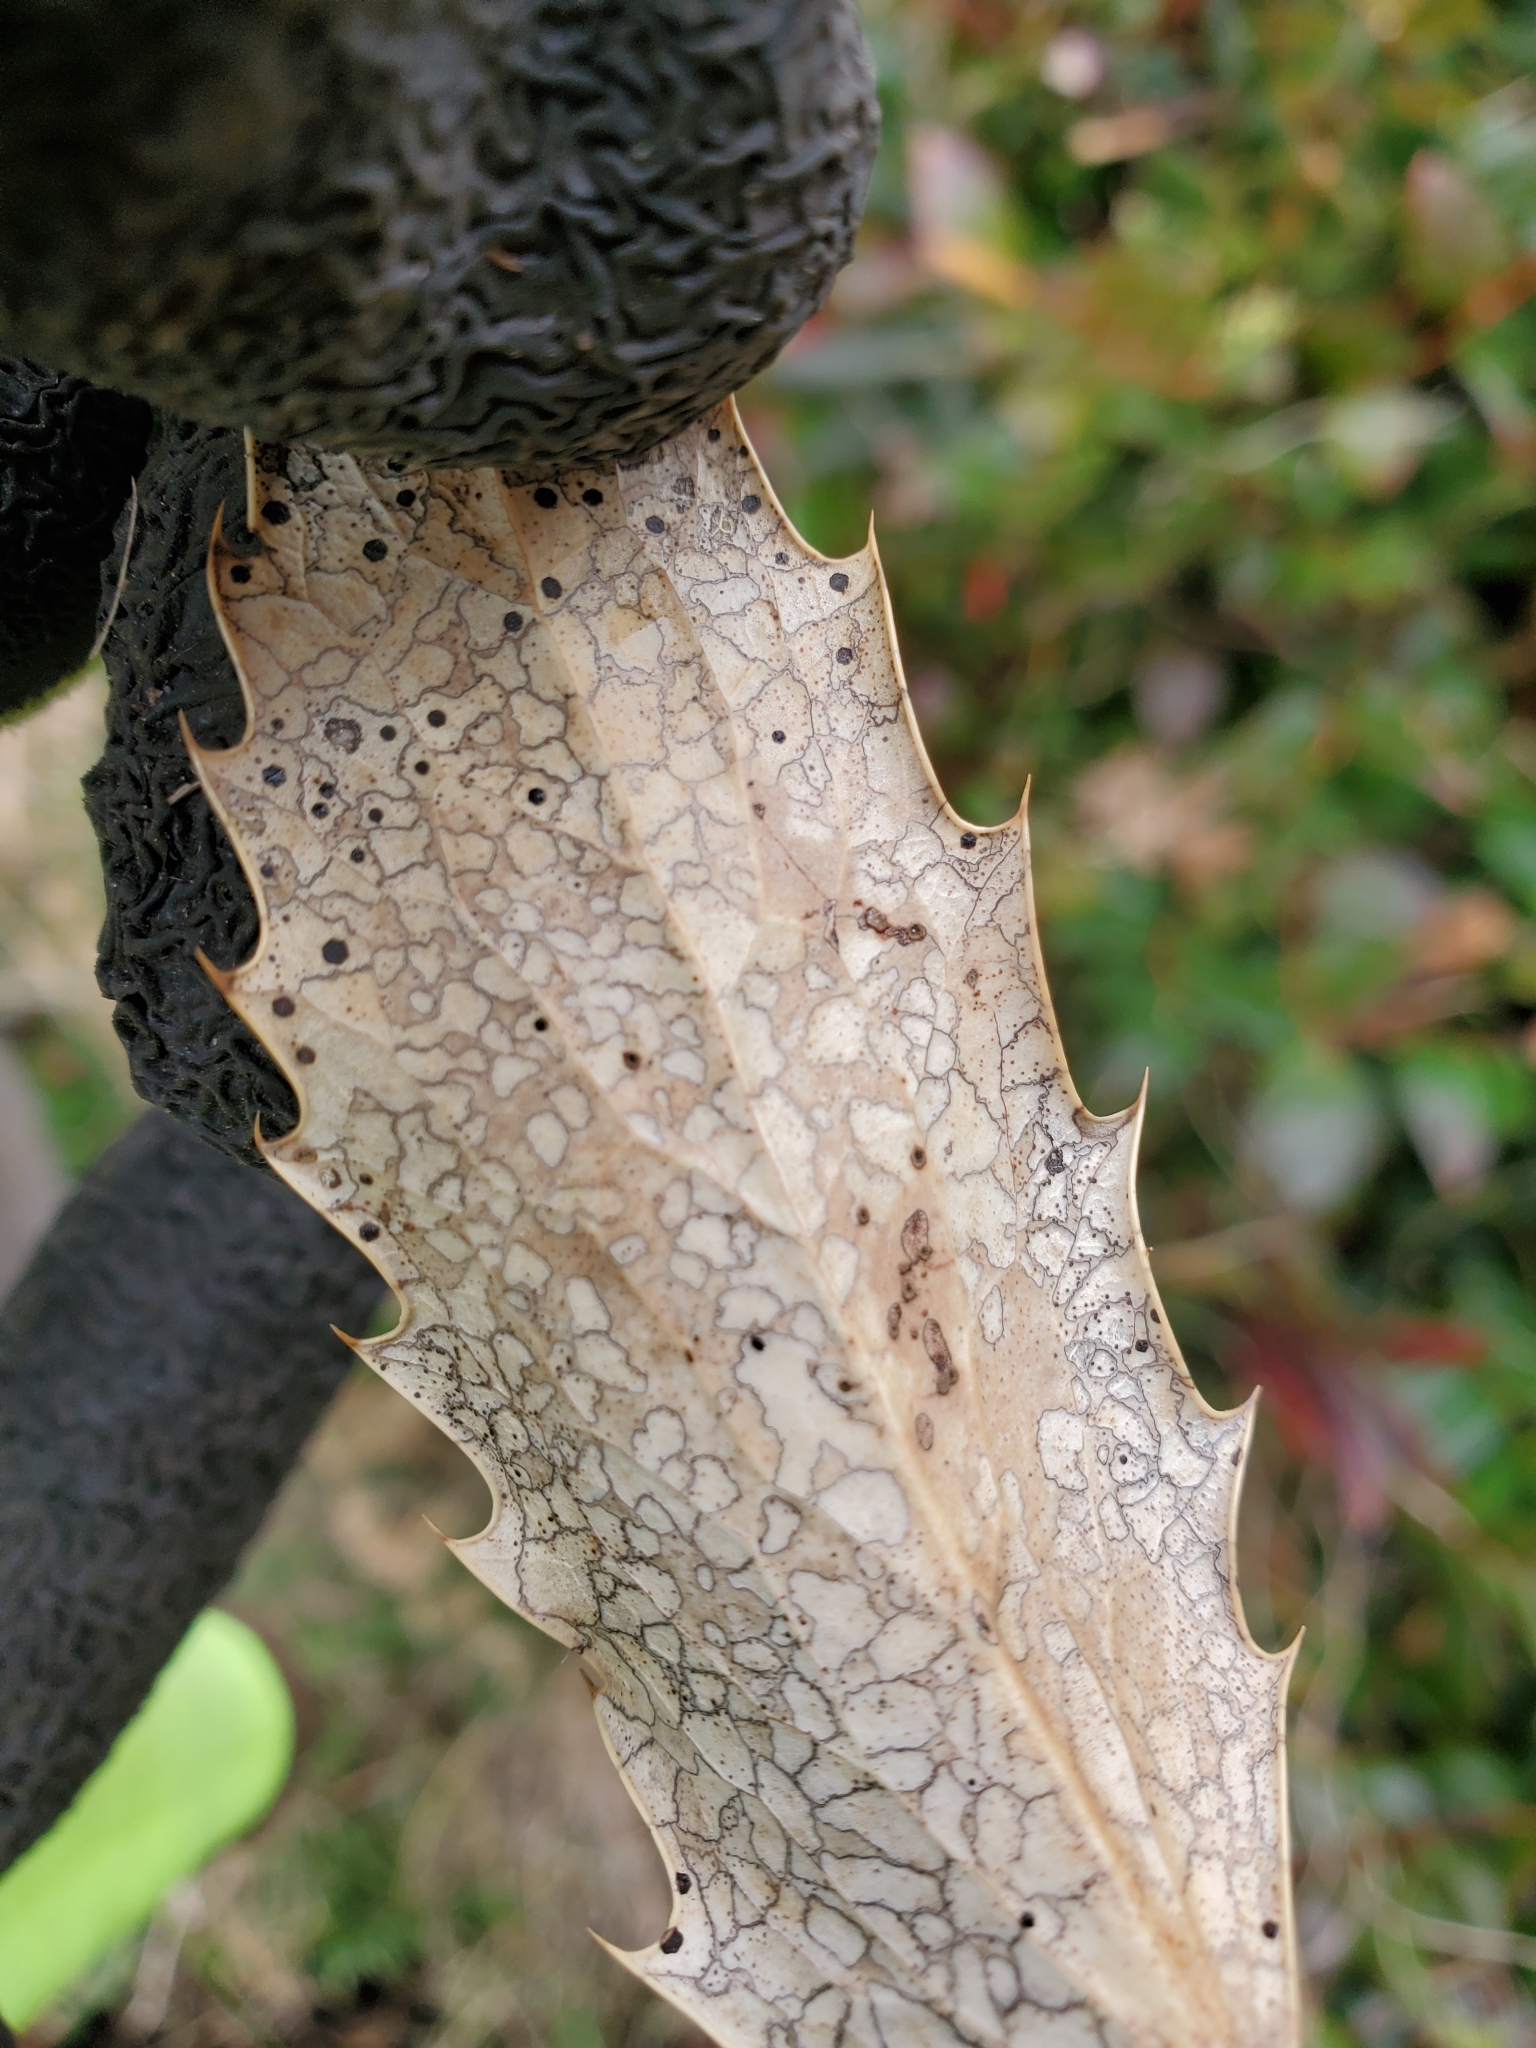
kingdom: Fungi
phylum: Ascomycota
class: Leotiomycetes
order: Rhytismatales
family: Rhytismataceae
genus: Coccomyces
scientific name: Coccomyces dentatus
